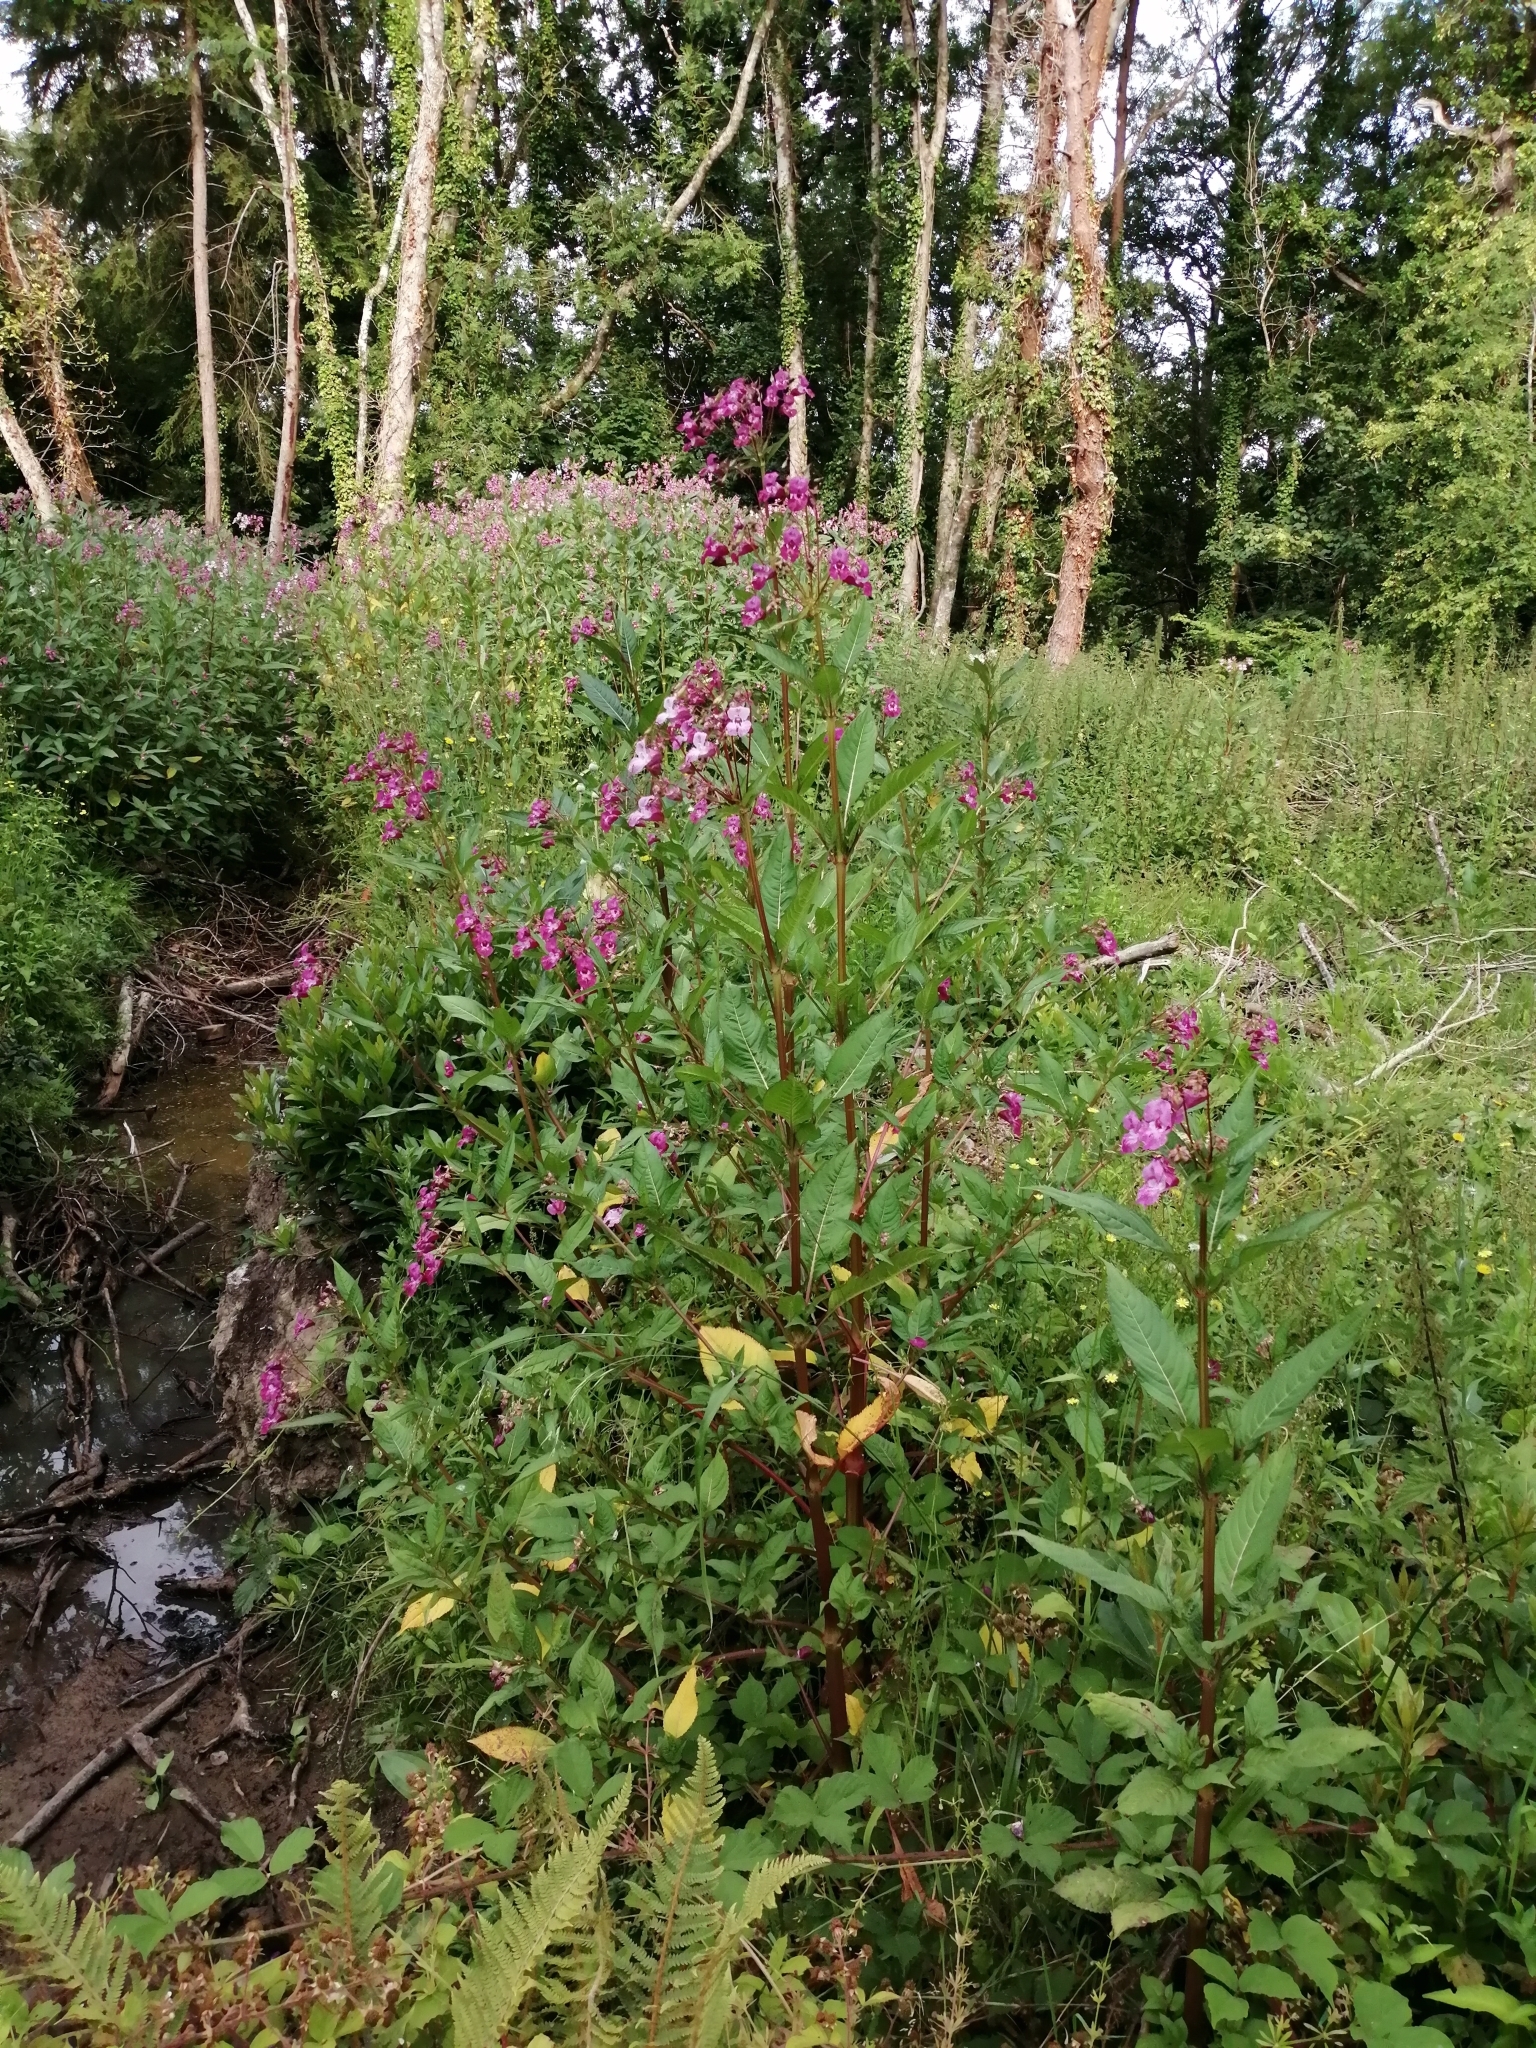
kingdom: Plantae
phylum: Tracheophyta
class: Magnoliopsida
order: Ericales
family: Balsaminaceae
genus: Impatiens
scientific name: Impatiens glandulifera
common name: Himalayan balsam
